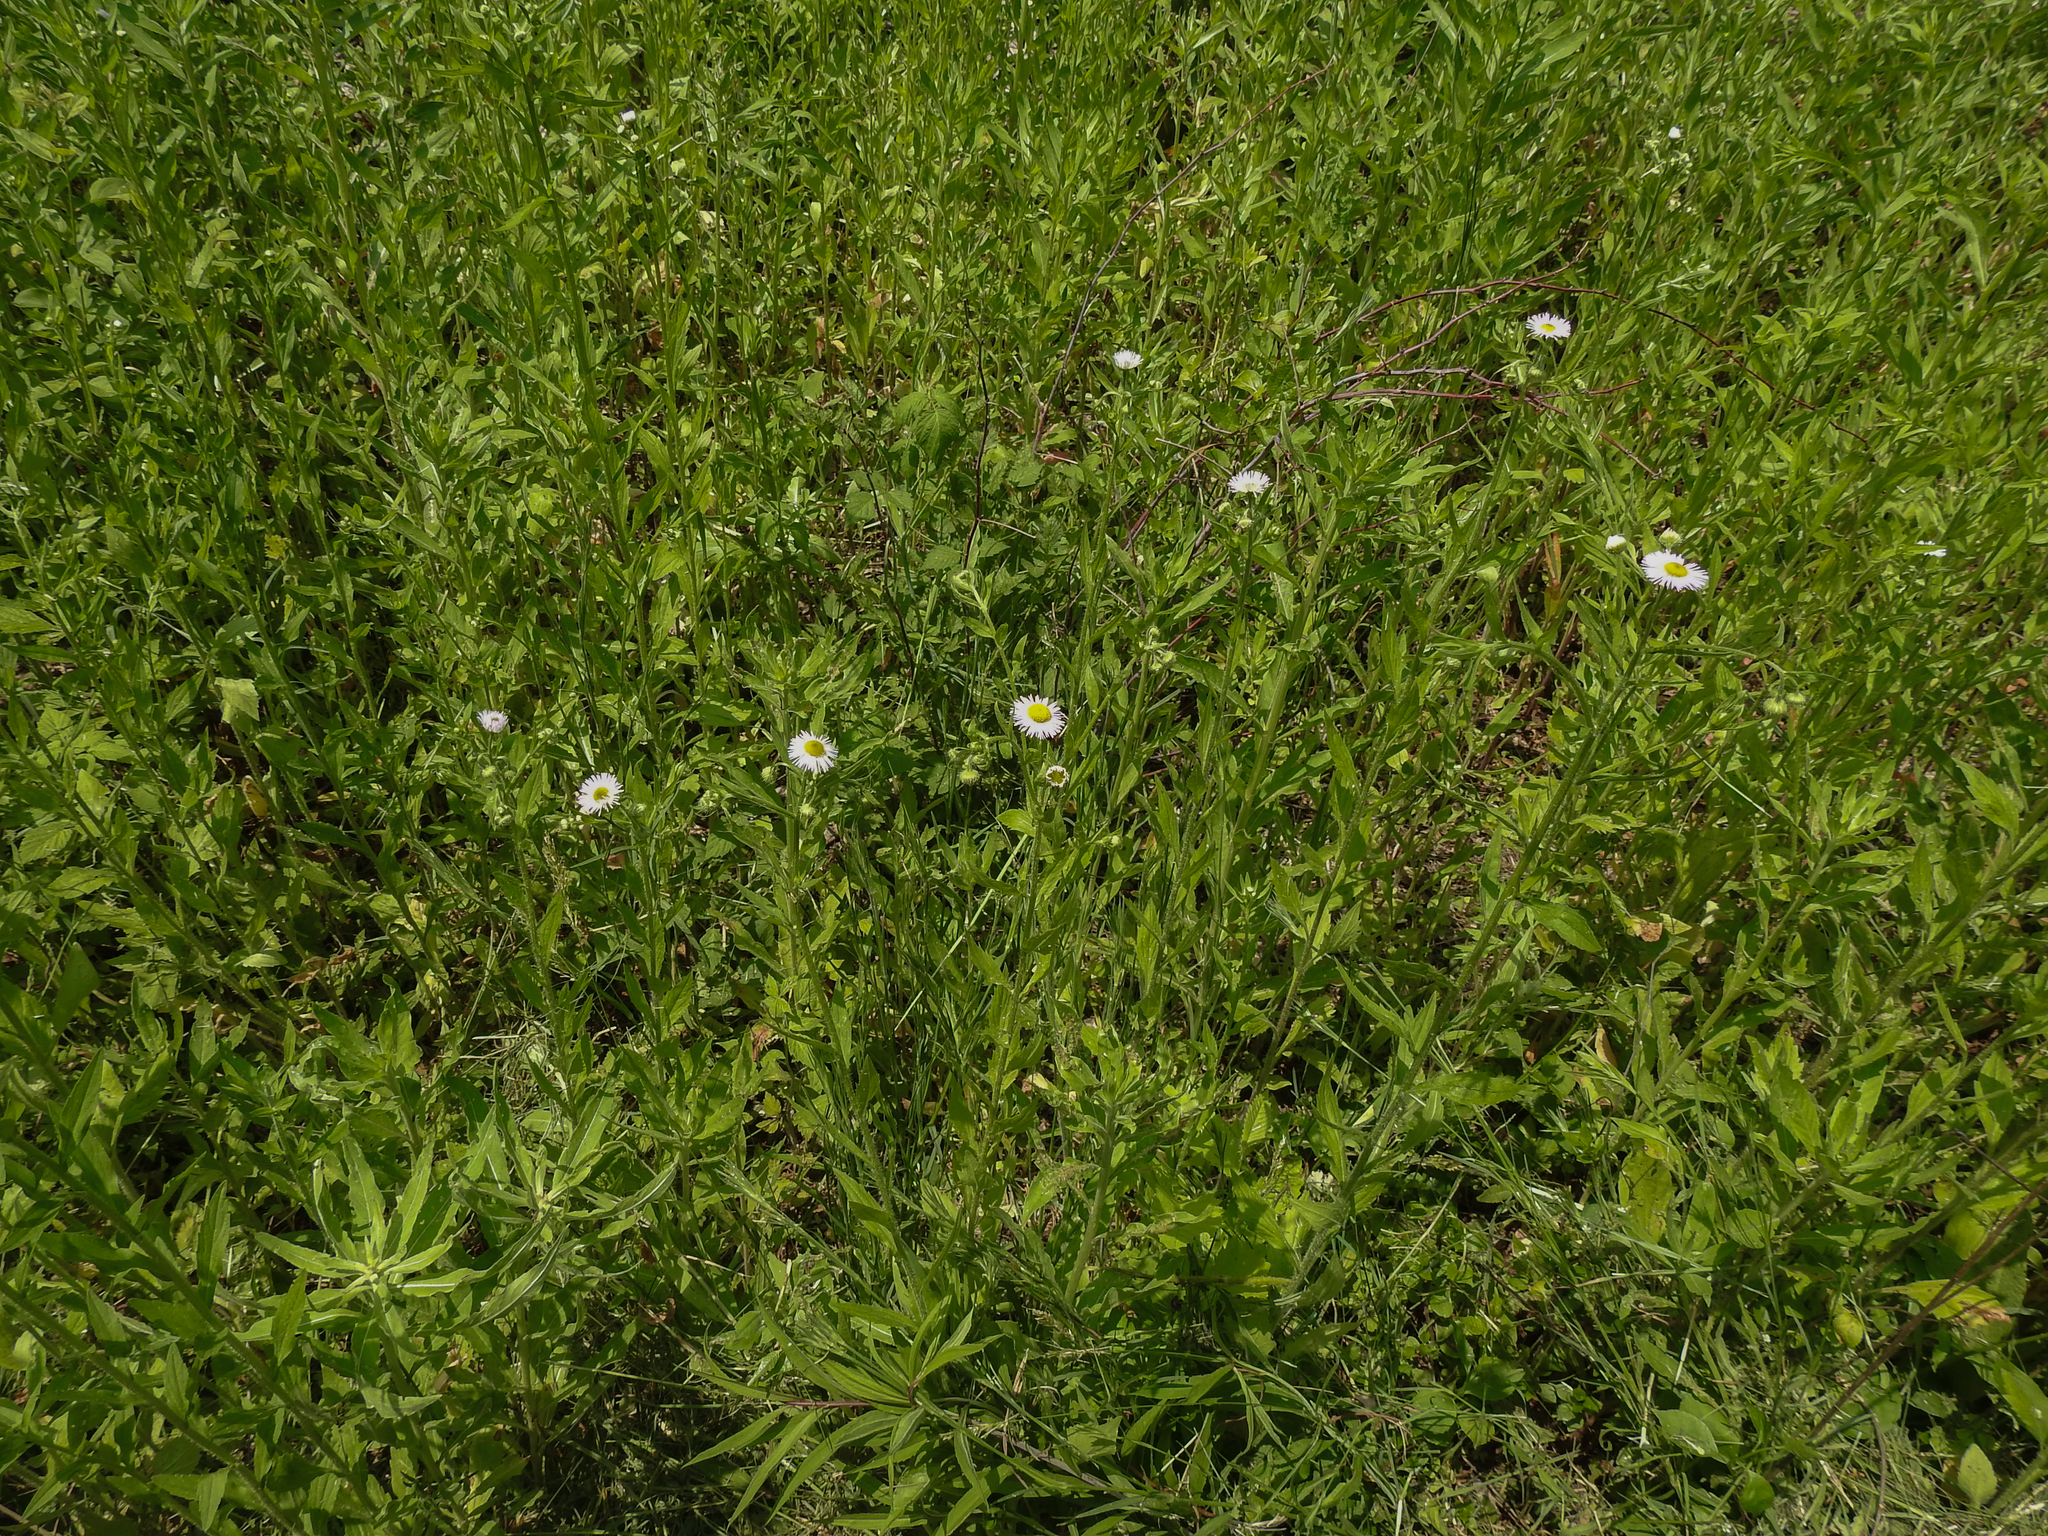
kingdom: Plantae
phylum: Tracheophyta
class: Magnoliopsida
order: Asterales
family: Asteraceae
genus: Erigeron
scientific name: Erigeron annuus
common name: Tall fleabane
